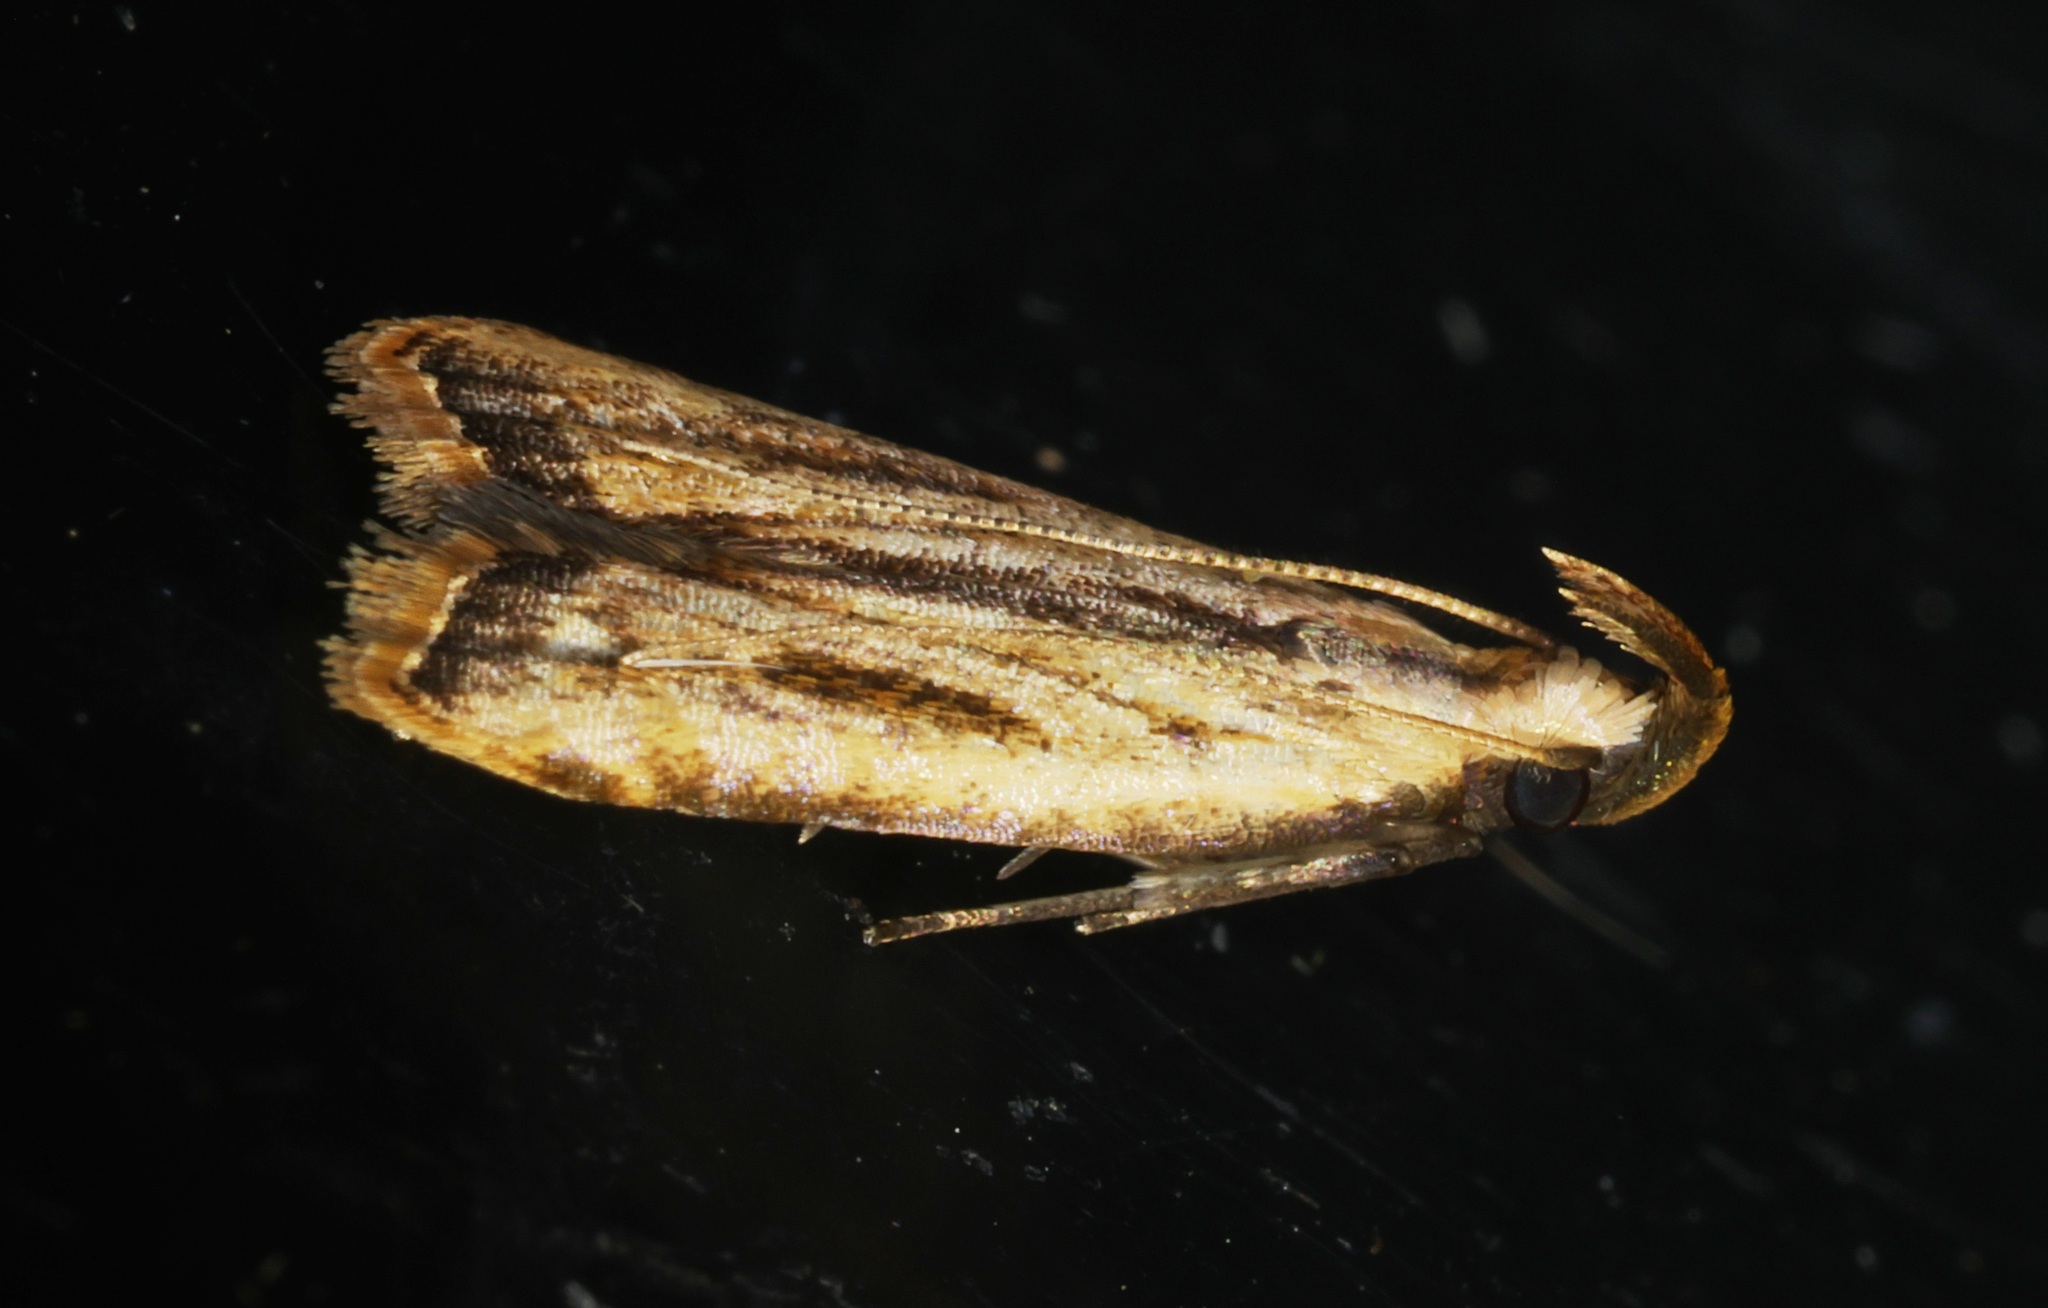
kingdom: Animalia
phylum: Arthropoda
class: Insecta
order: Lepidoptera
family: Gelechiidae
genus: Dichomeris
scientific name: Dichomeris parvisexafurca
